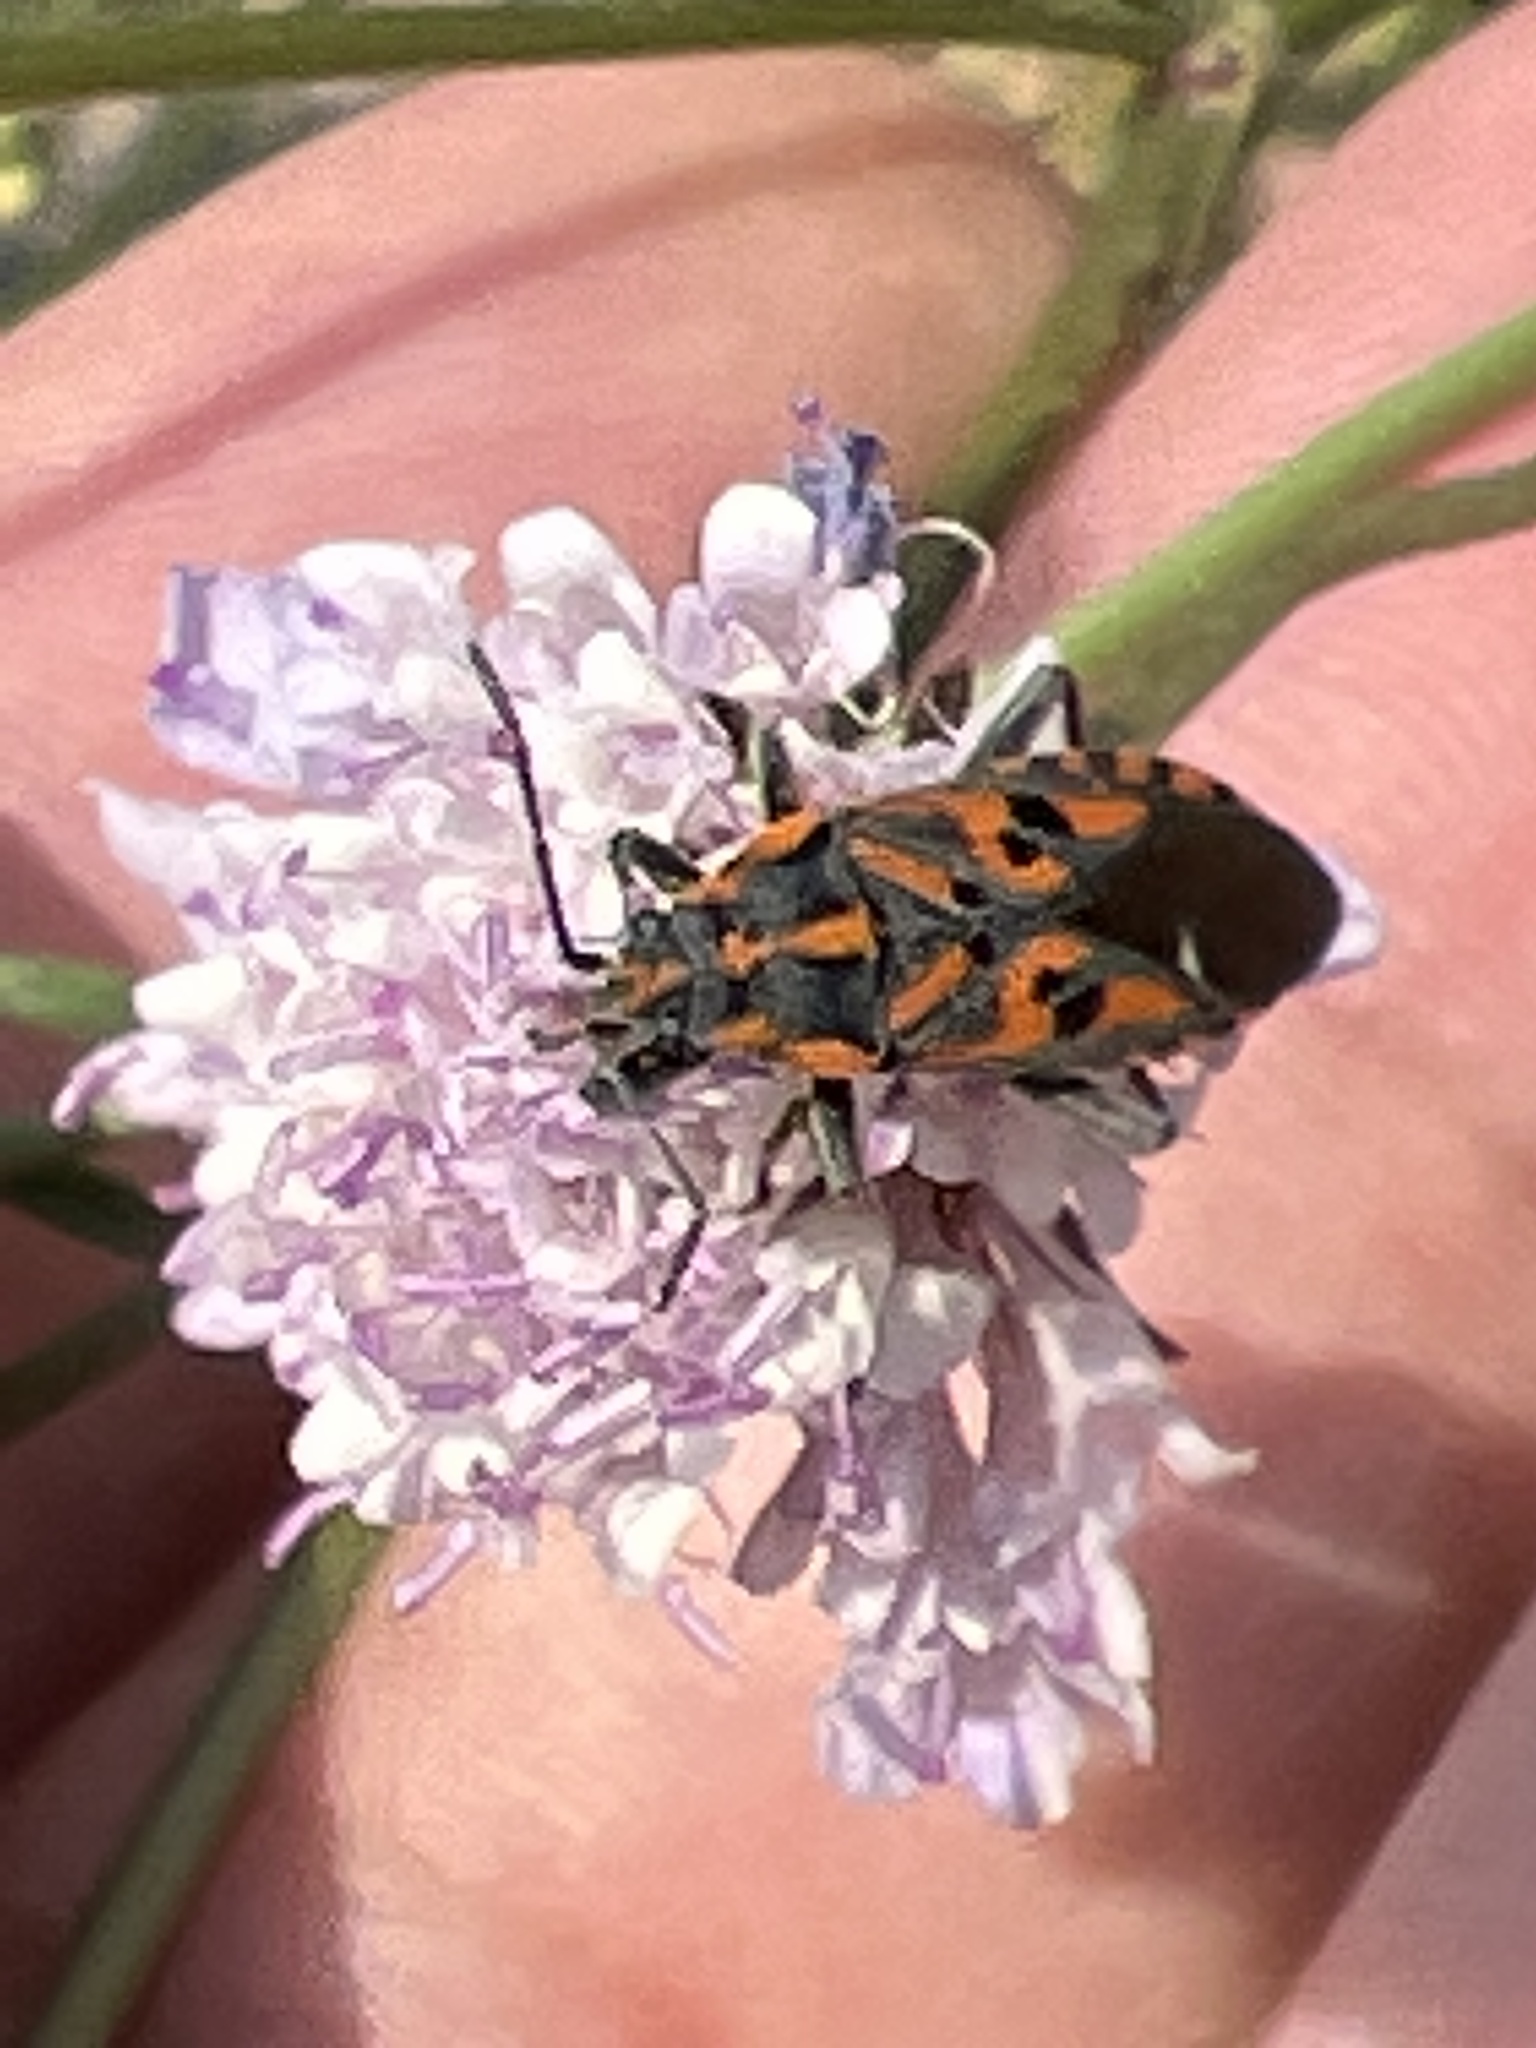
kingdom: Animalia
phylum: Arthropoda
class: Insecta
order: Hemiptera
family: Lygaeidae
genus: Spilostethus
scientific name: Spilostethus saxatilis
